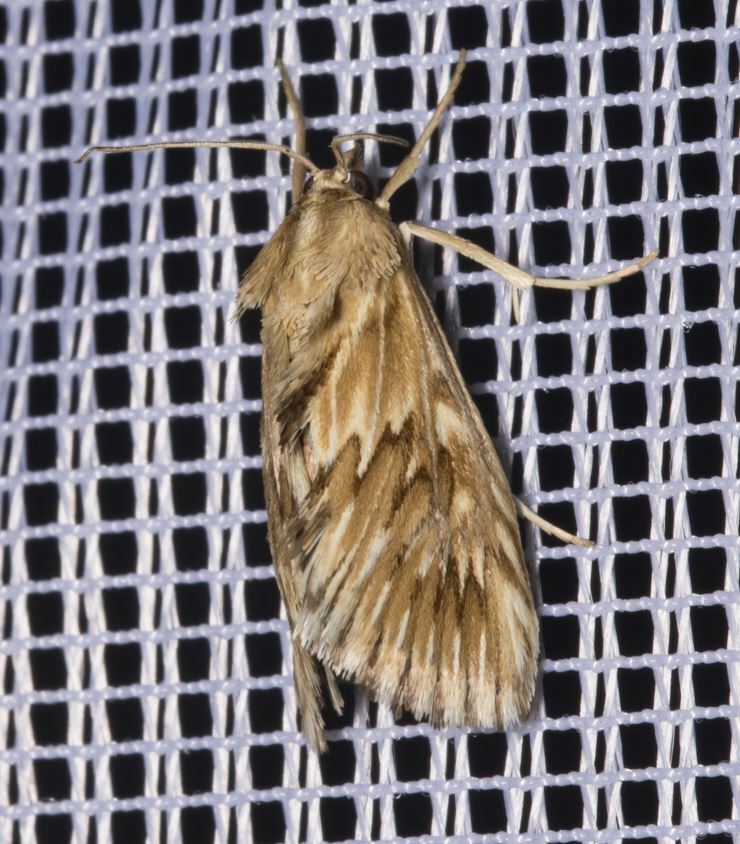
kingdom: Animalia
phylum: Arthropoda
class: Insecta
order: Lepidoptera
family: Crambidae
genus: Cynaeda
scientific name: Cynaeda dentalis
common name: Starry pearl
